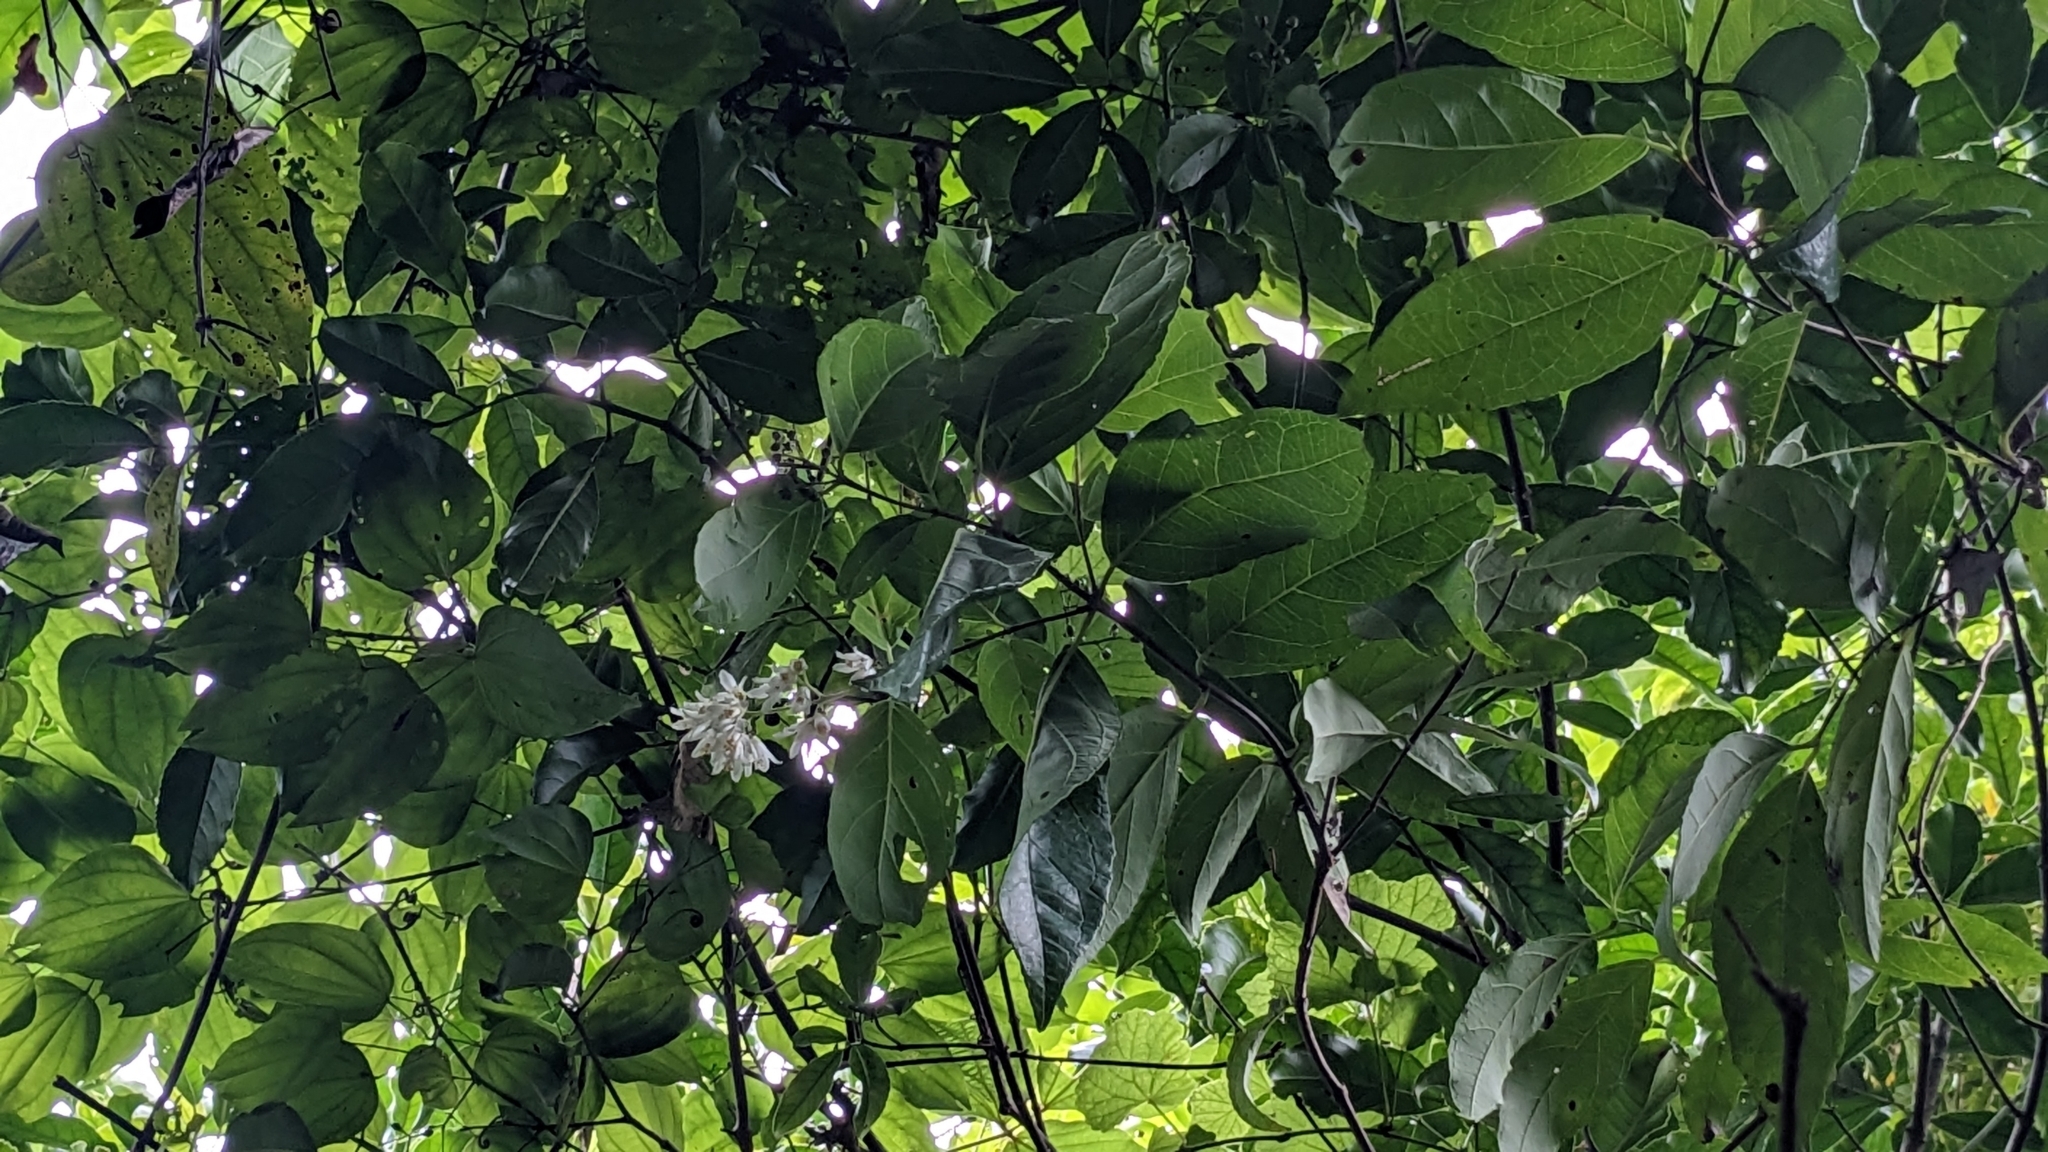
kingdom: Plantae
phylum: Tracheophyta
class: Magnoliopsida
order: Cornales
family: Hydrangeaceae
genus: Deutzia
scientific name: Deutzia pulchra
